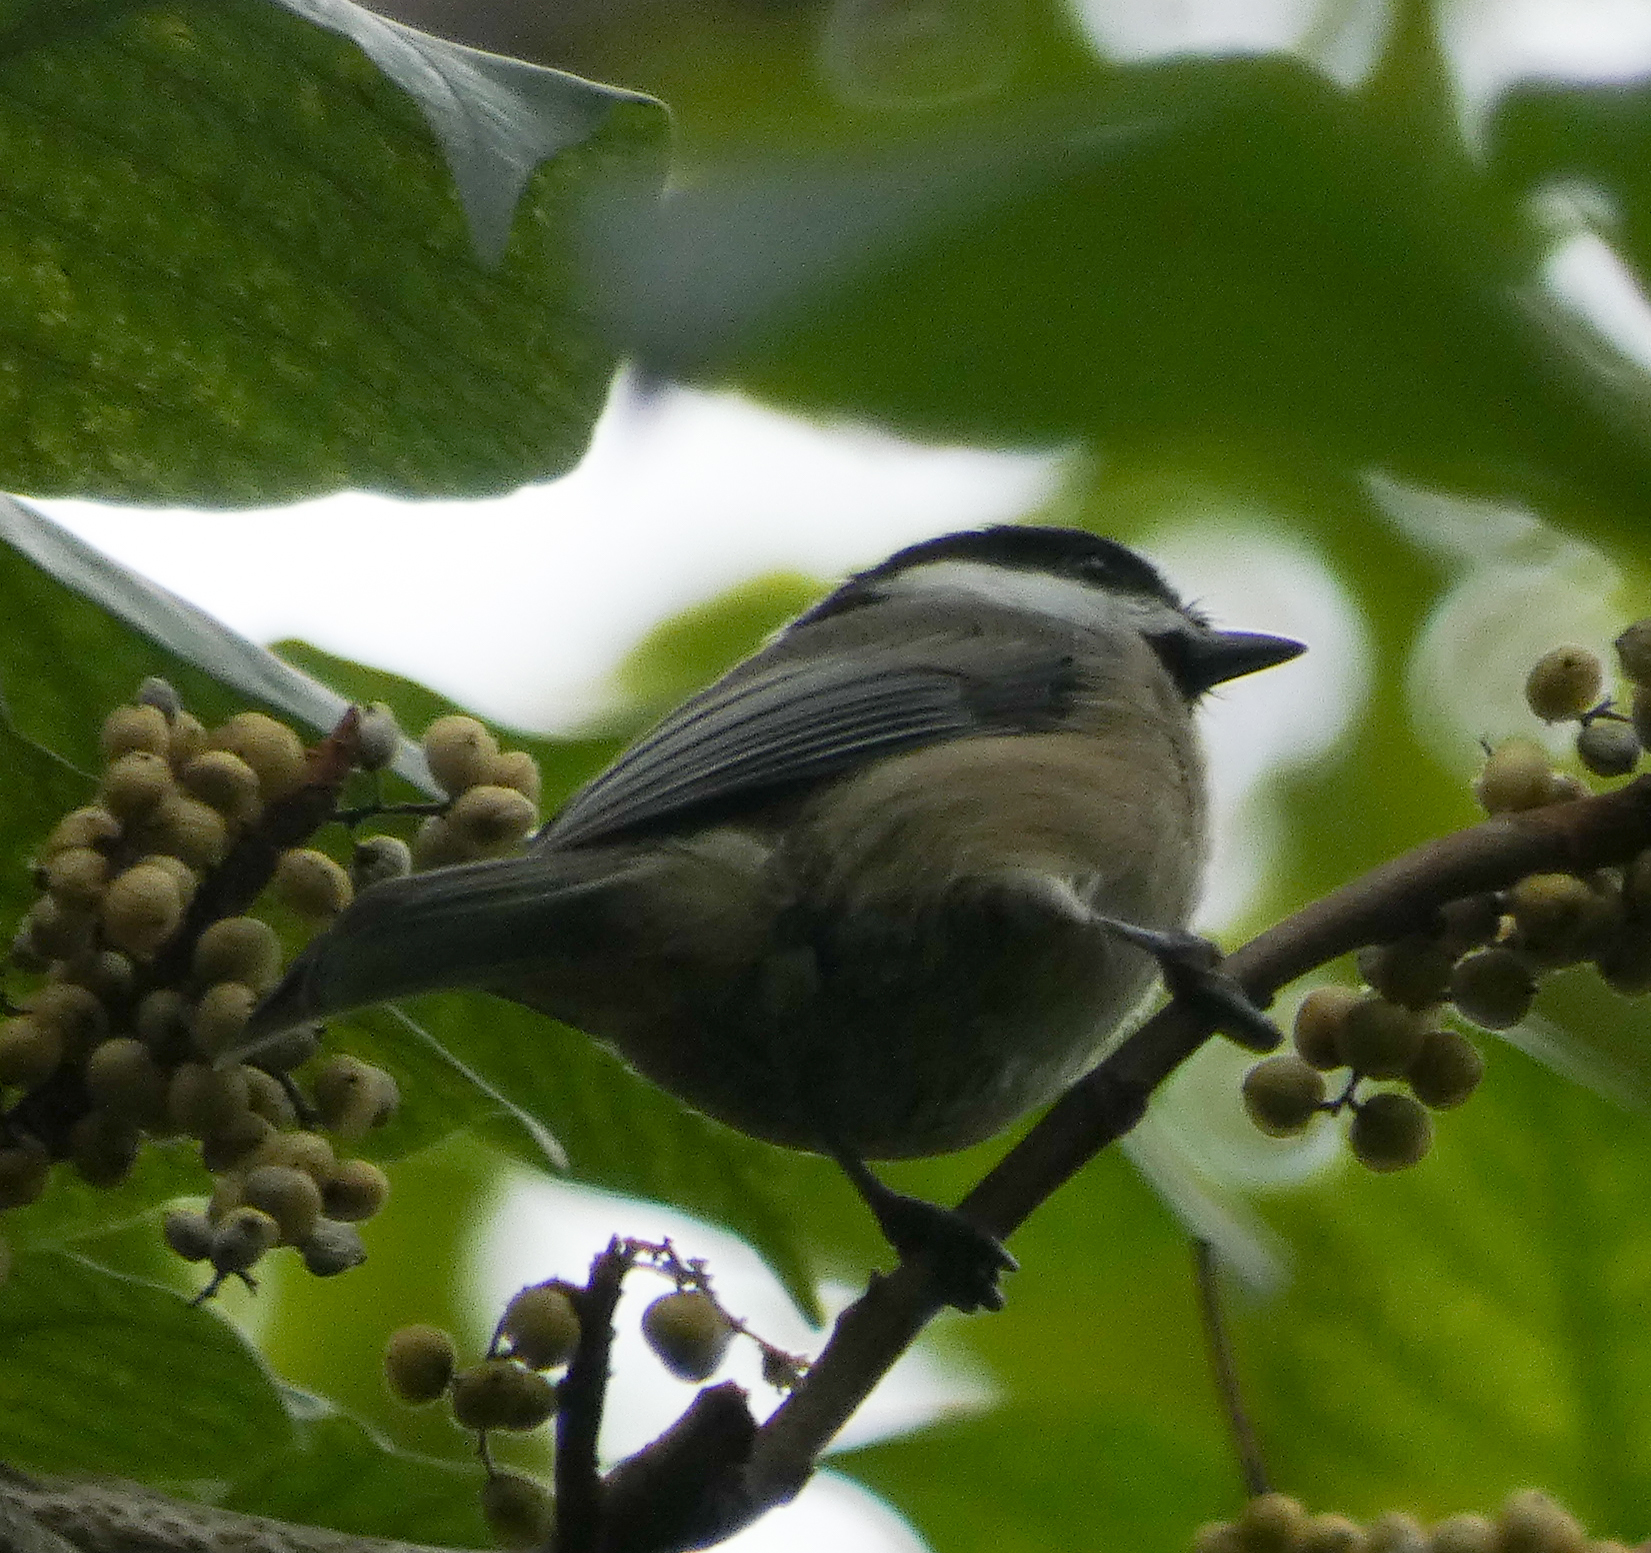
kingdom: Animalia
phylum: Chordata
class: Aves
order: Passeriformes
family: Paridae
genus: Poecile
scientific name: Poecile carolinensis
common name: Carolina chickadee
